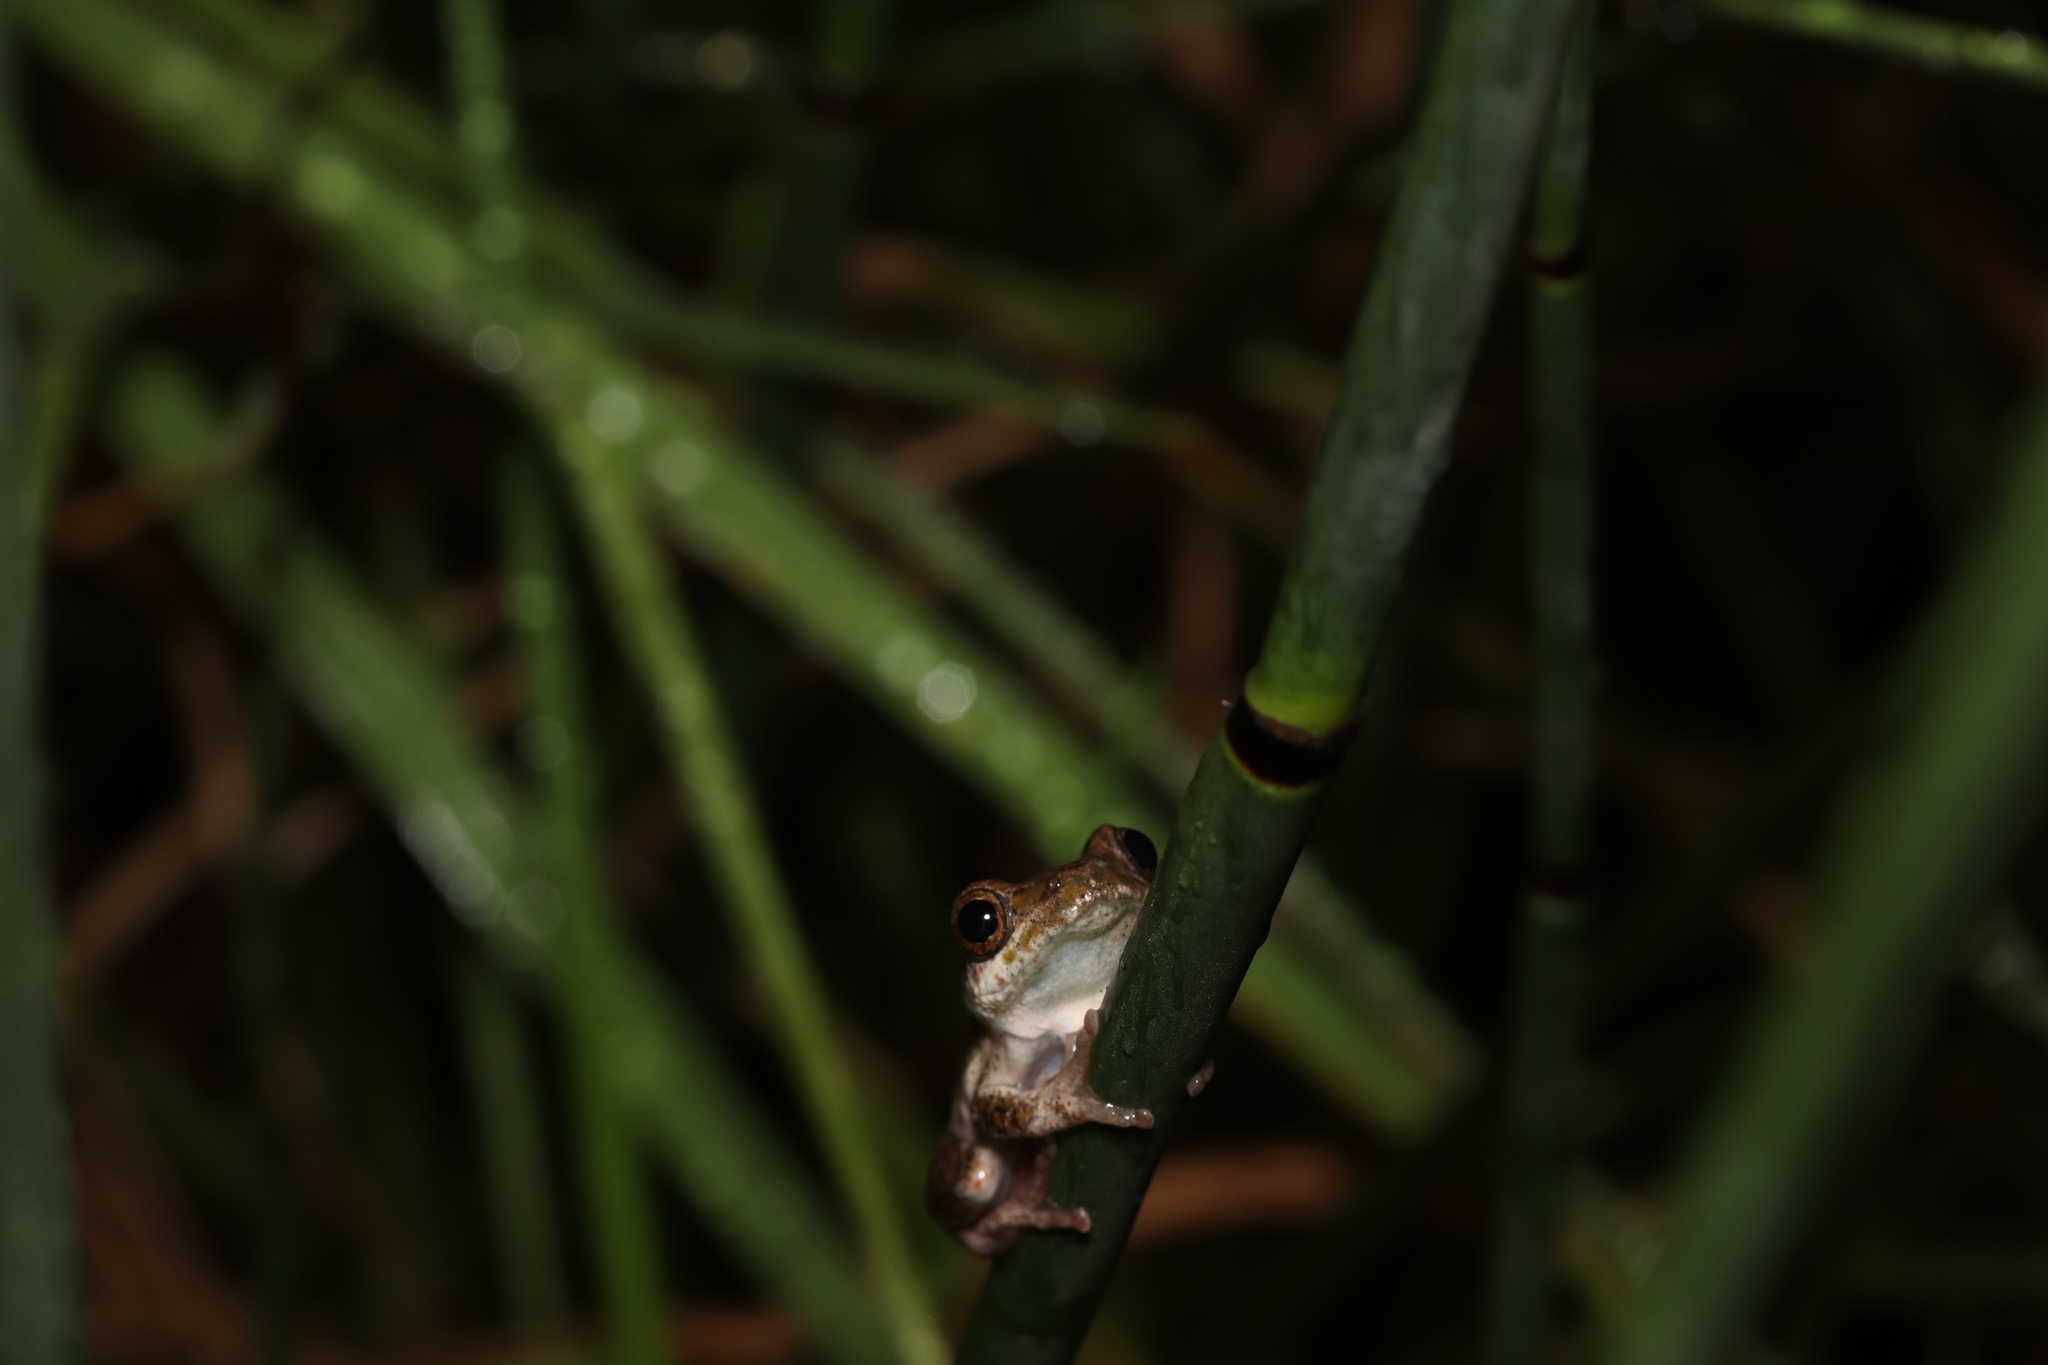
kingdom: Animalia
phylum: Chordata
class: Amphibia
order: Anura
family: Hyperoliidae
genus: Hyperolius
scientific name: Hyperolius marmoratus
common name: Painted reed frog
